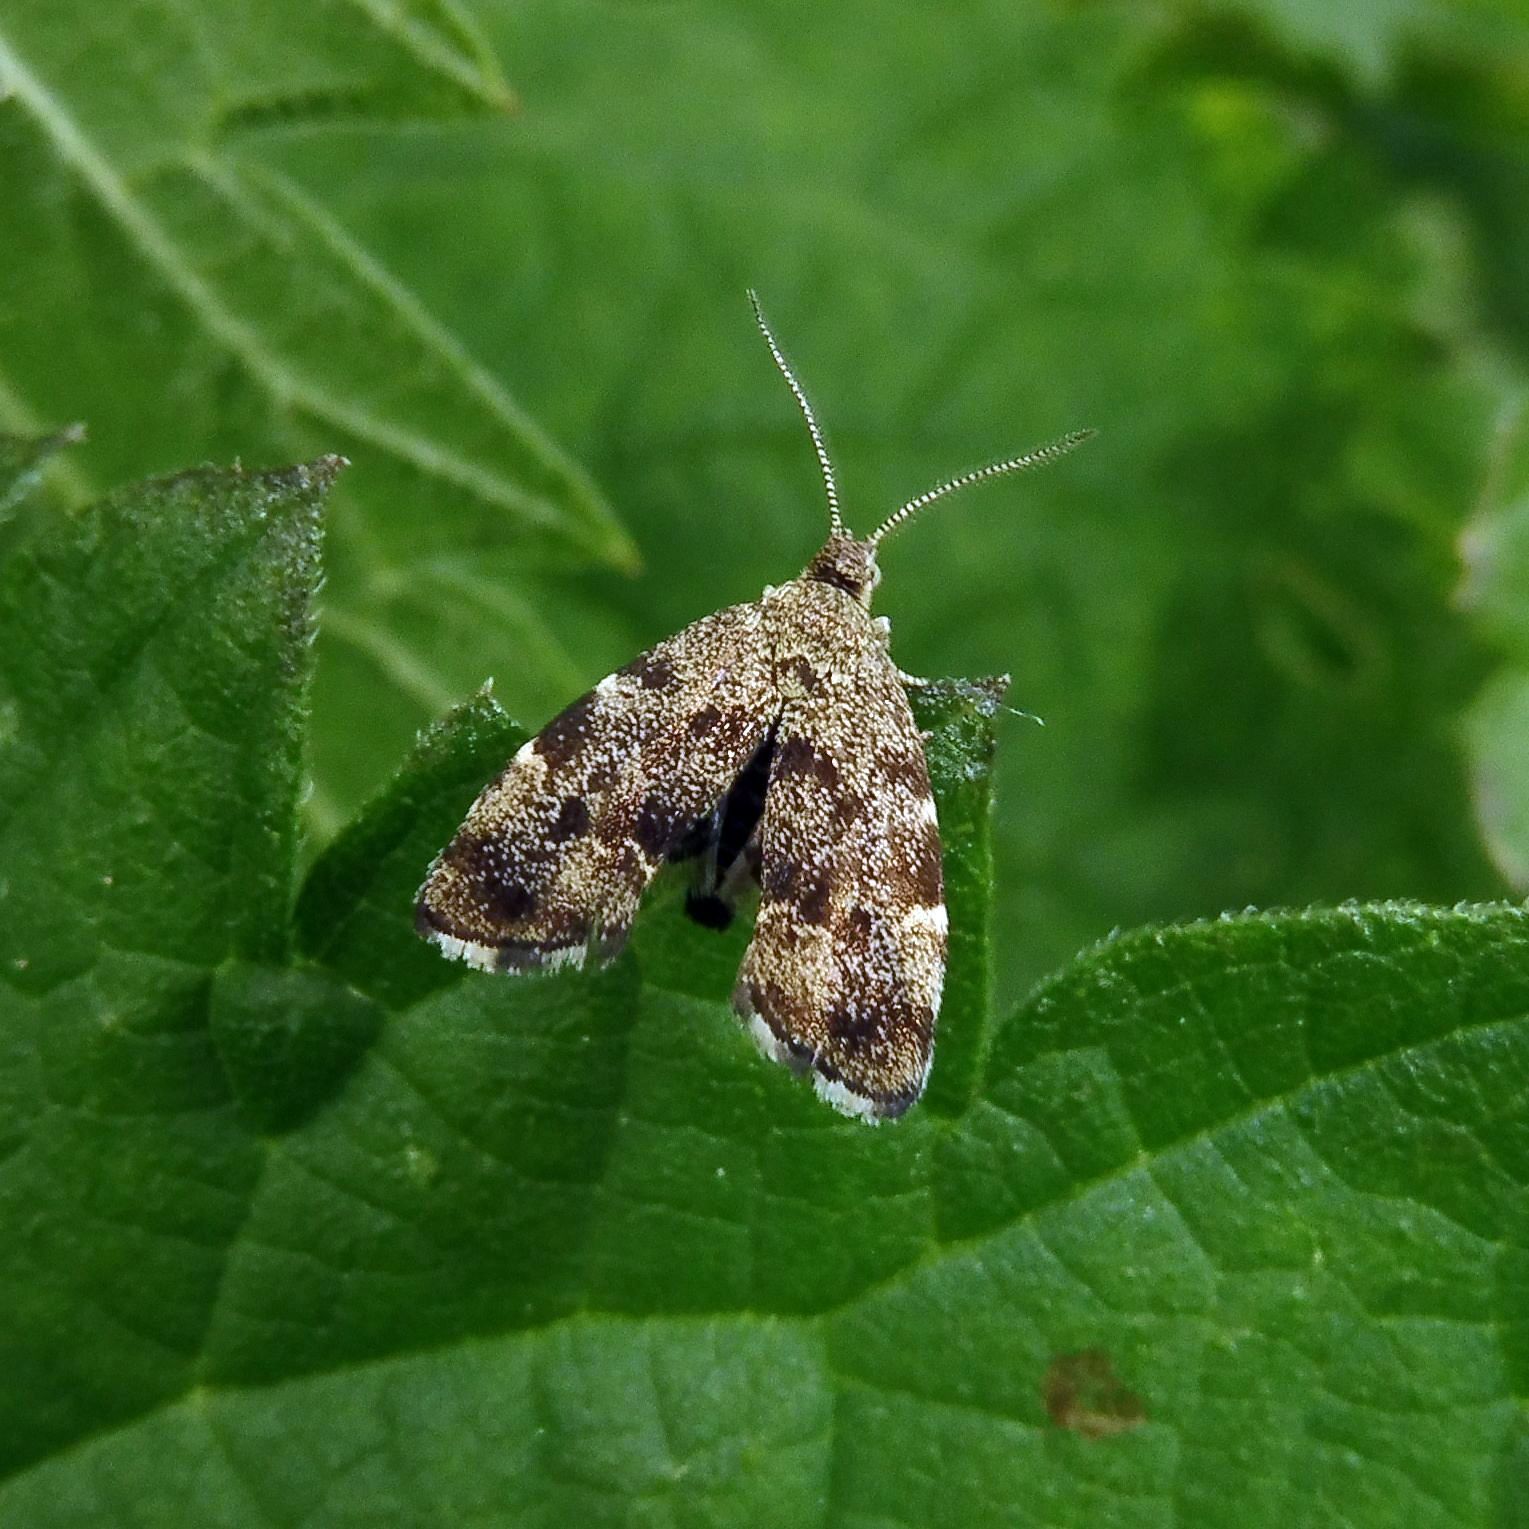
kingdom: Animalia
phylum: Arthropoda
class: Insecta
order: Lepidoptera
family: Choreutidae
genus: Anthophila
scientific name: Anthophila fabriciana
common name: Nettle-tap
